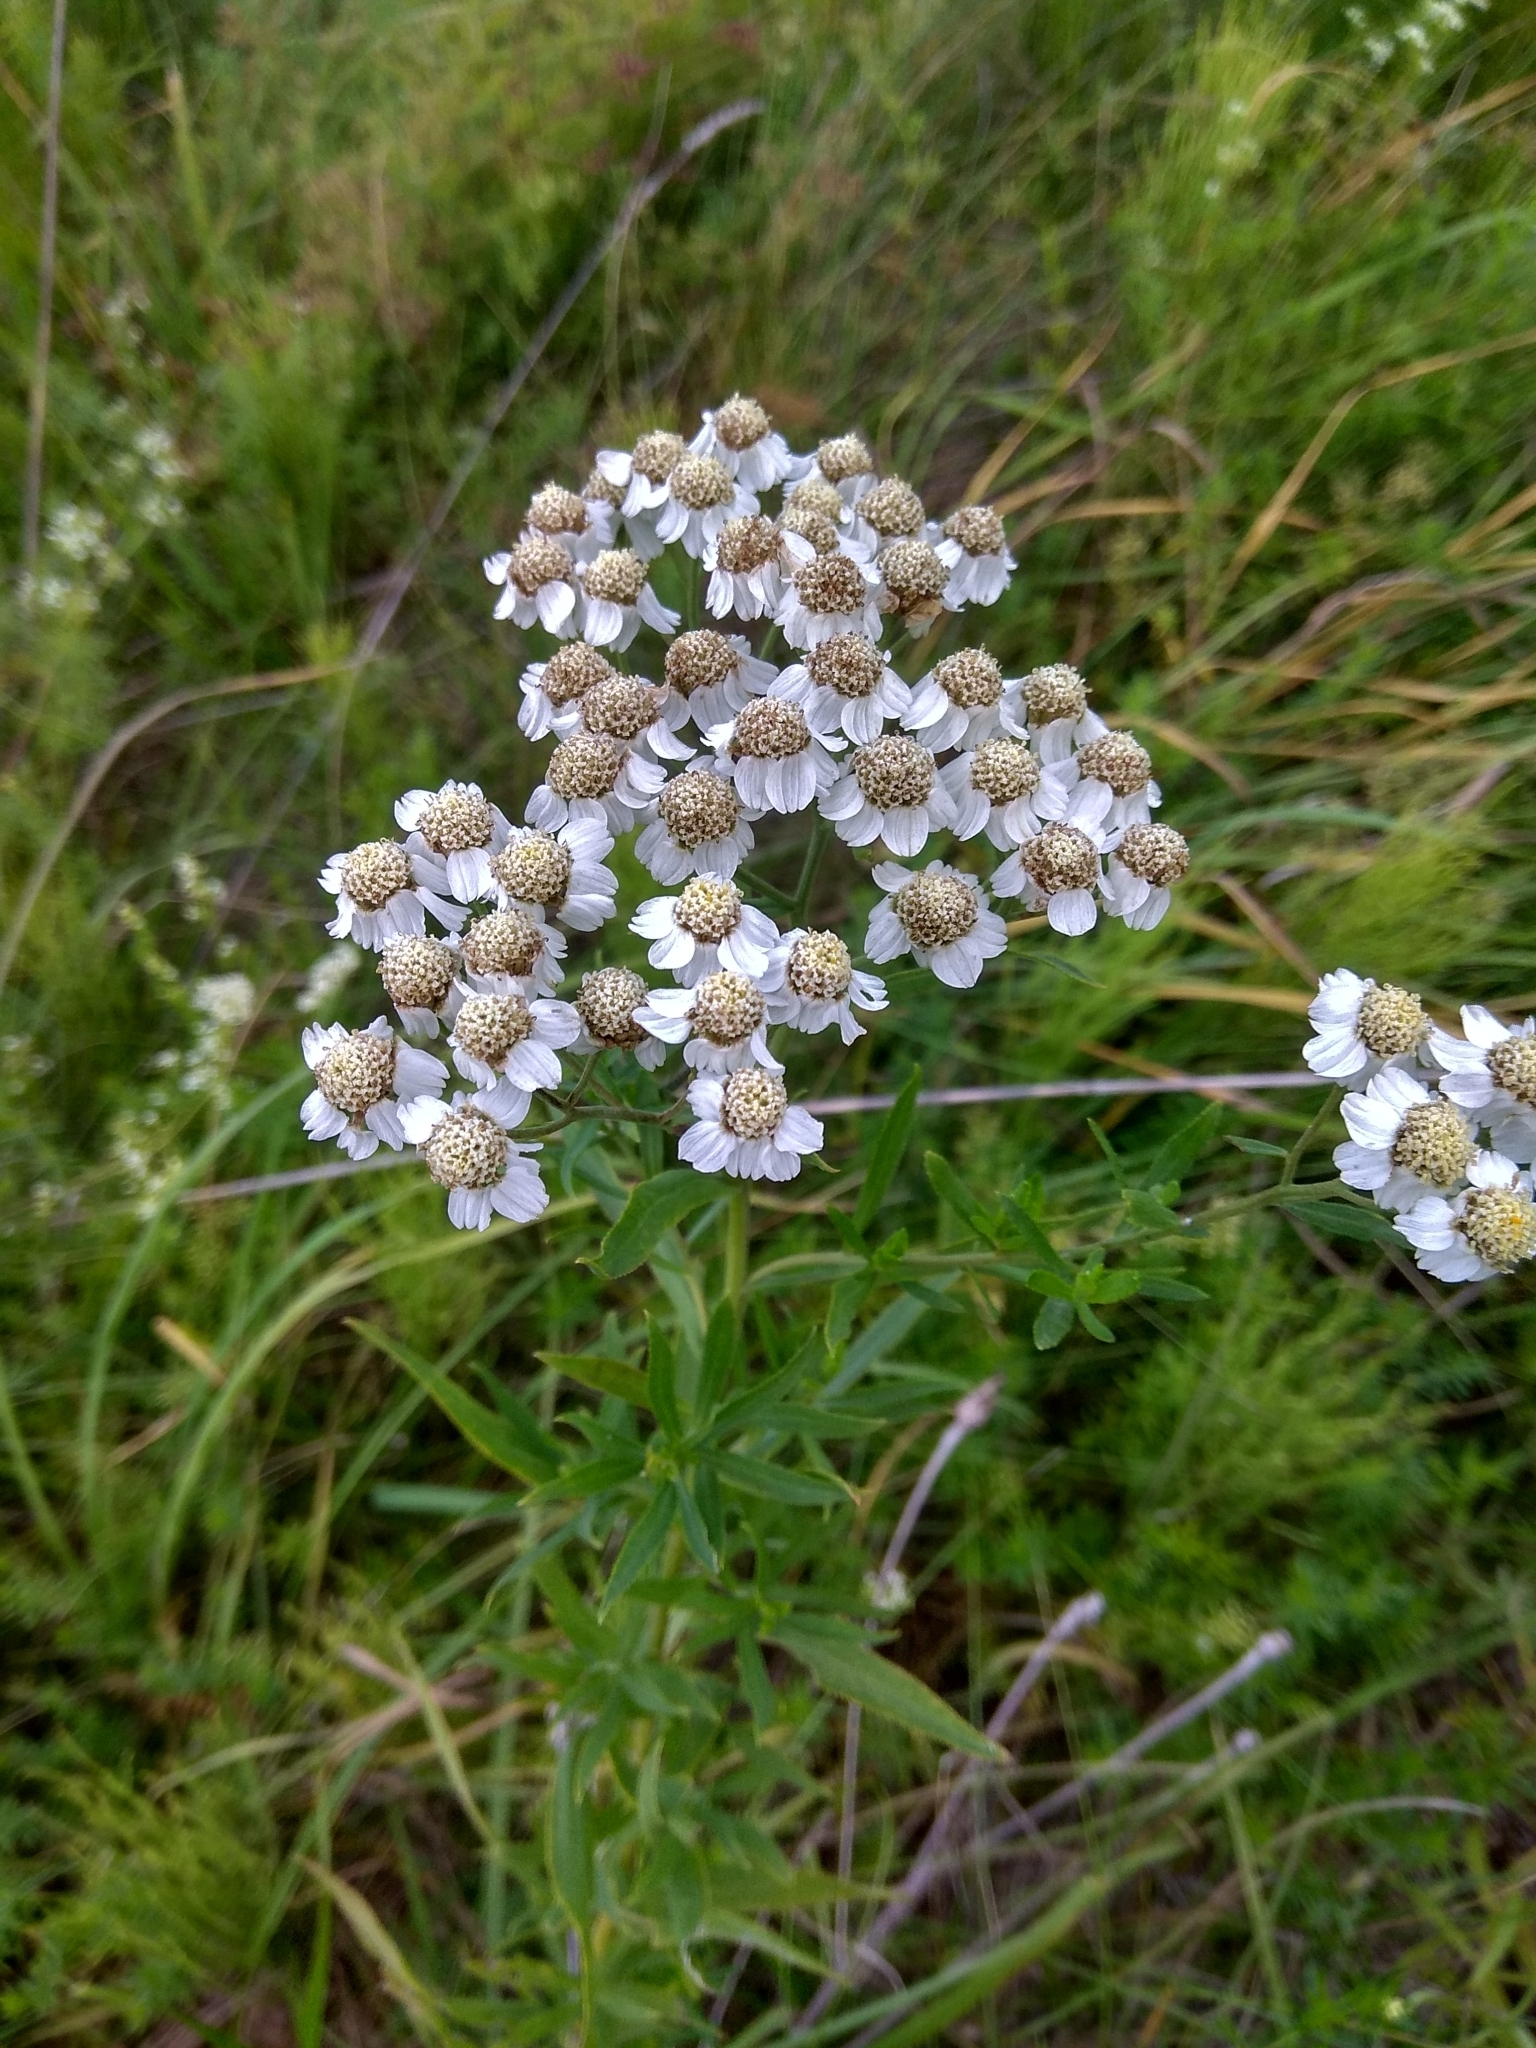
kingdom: Plantae
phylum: Tracheophyta
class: Magnoliopsida
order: Asterales
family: Asteraceae
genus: Achillea
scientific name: Achillea salicifolia
